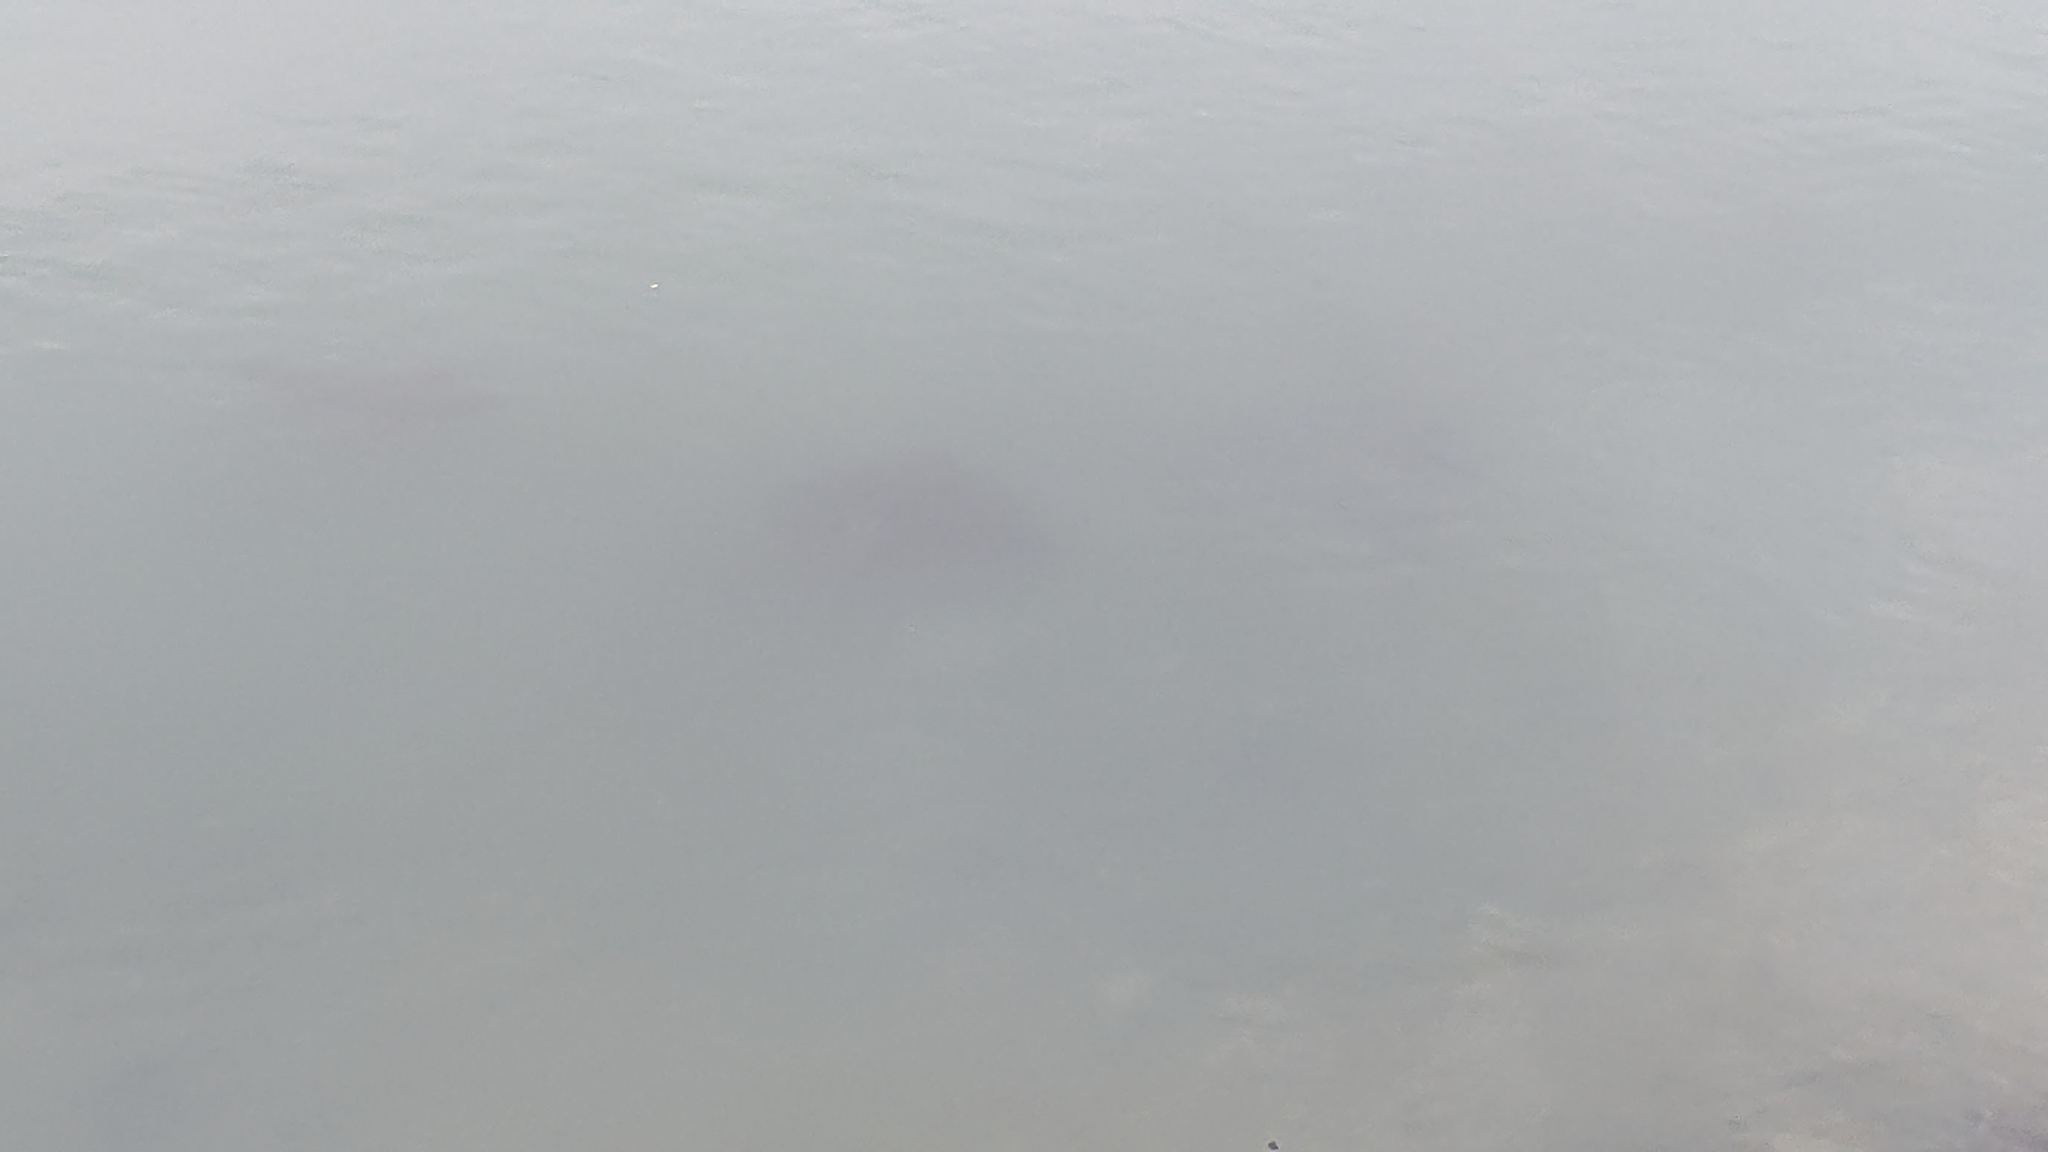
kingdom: Animalia
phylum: Chordata
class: Elasmobranchii
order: Myliobatiformes
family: Myliobatidae
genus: Myliobatis
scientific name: Myliobatis tenuicaudatus
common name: Eagle ray
